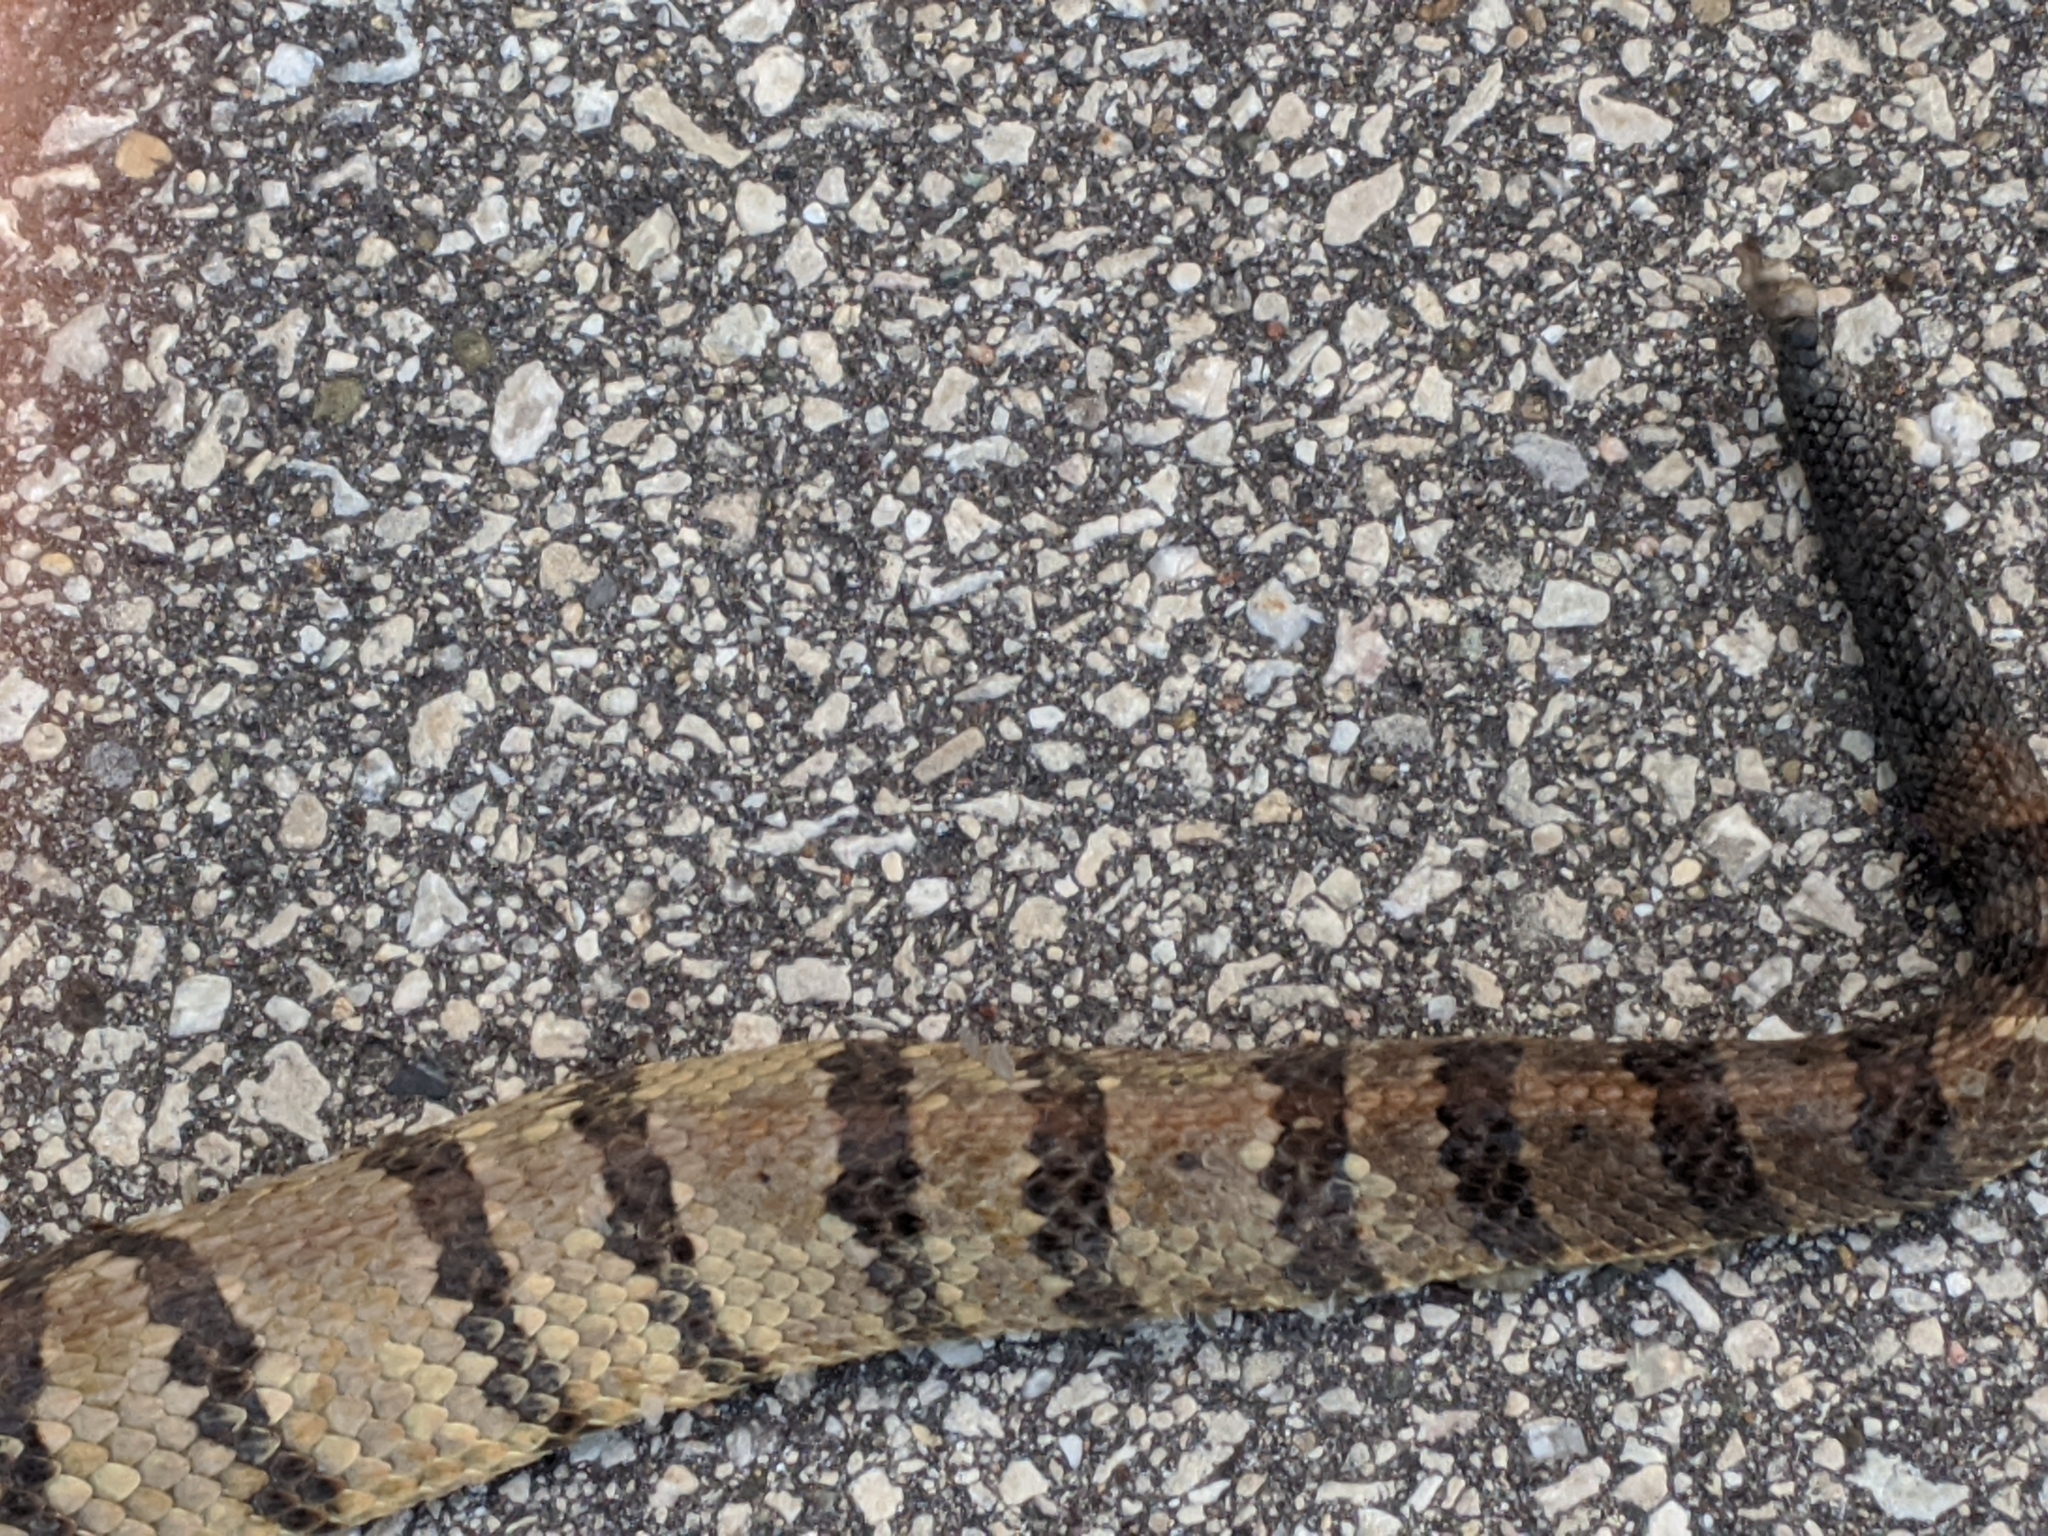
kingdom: Animalia
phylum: Chordata
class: Squamata
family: Viperidae
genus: Crotalus
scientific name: Crotalus horridus
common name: Timber rattlesnake
